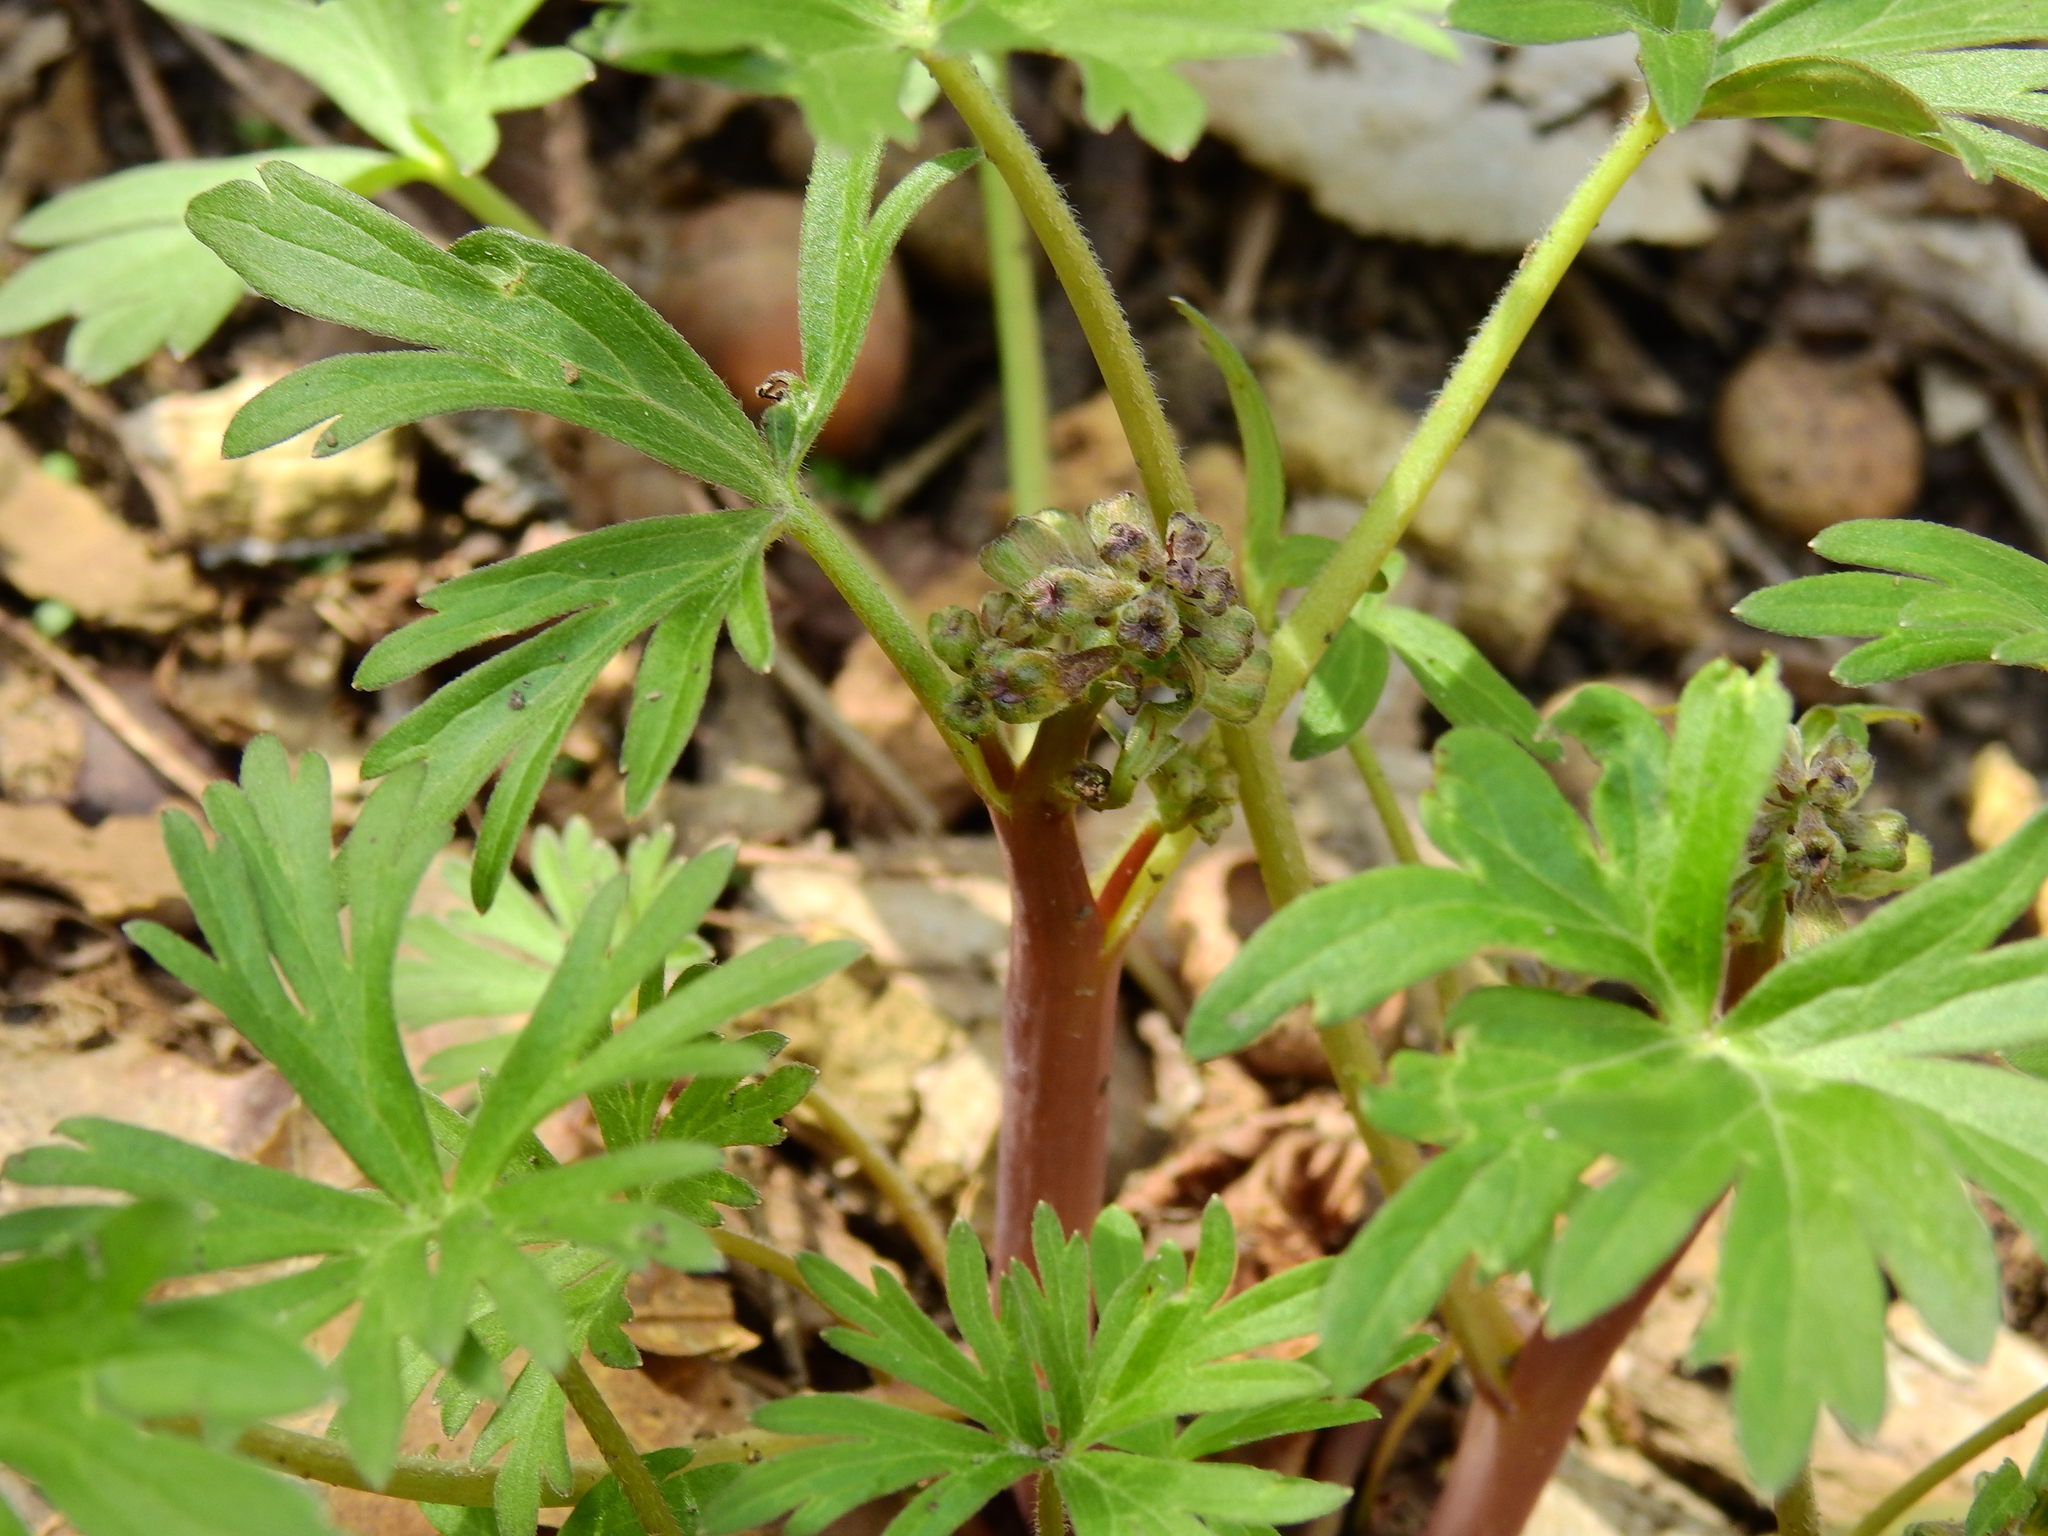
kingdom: Plantae
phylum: Tracheophyta
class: Magnoliopsida
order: Ranunculales
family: Ranunculaceae
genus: Delphinium
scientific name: Delphinium tricorne
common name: Dwarf larkspur
